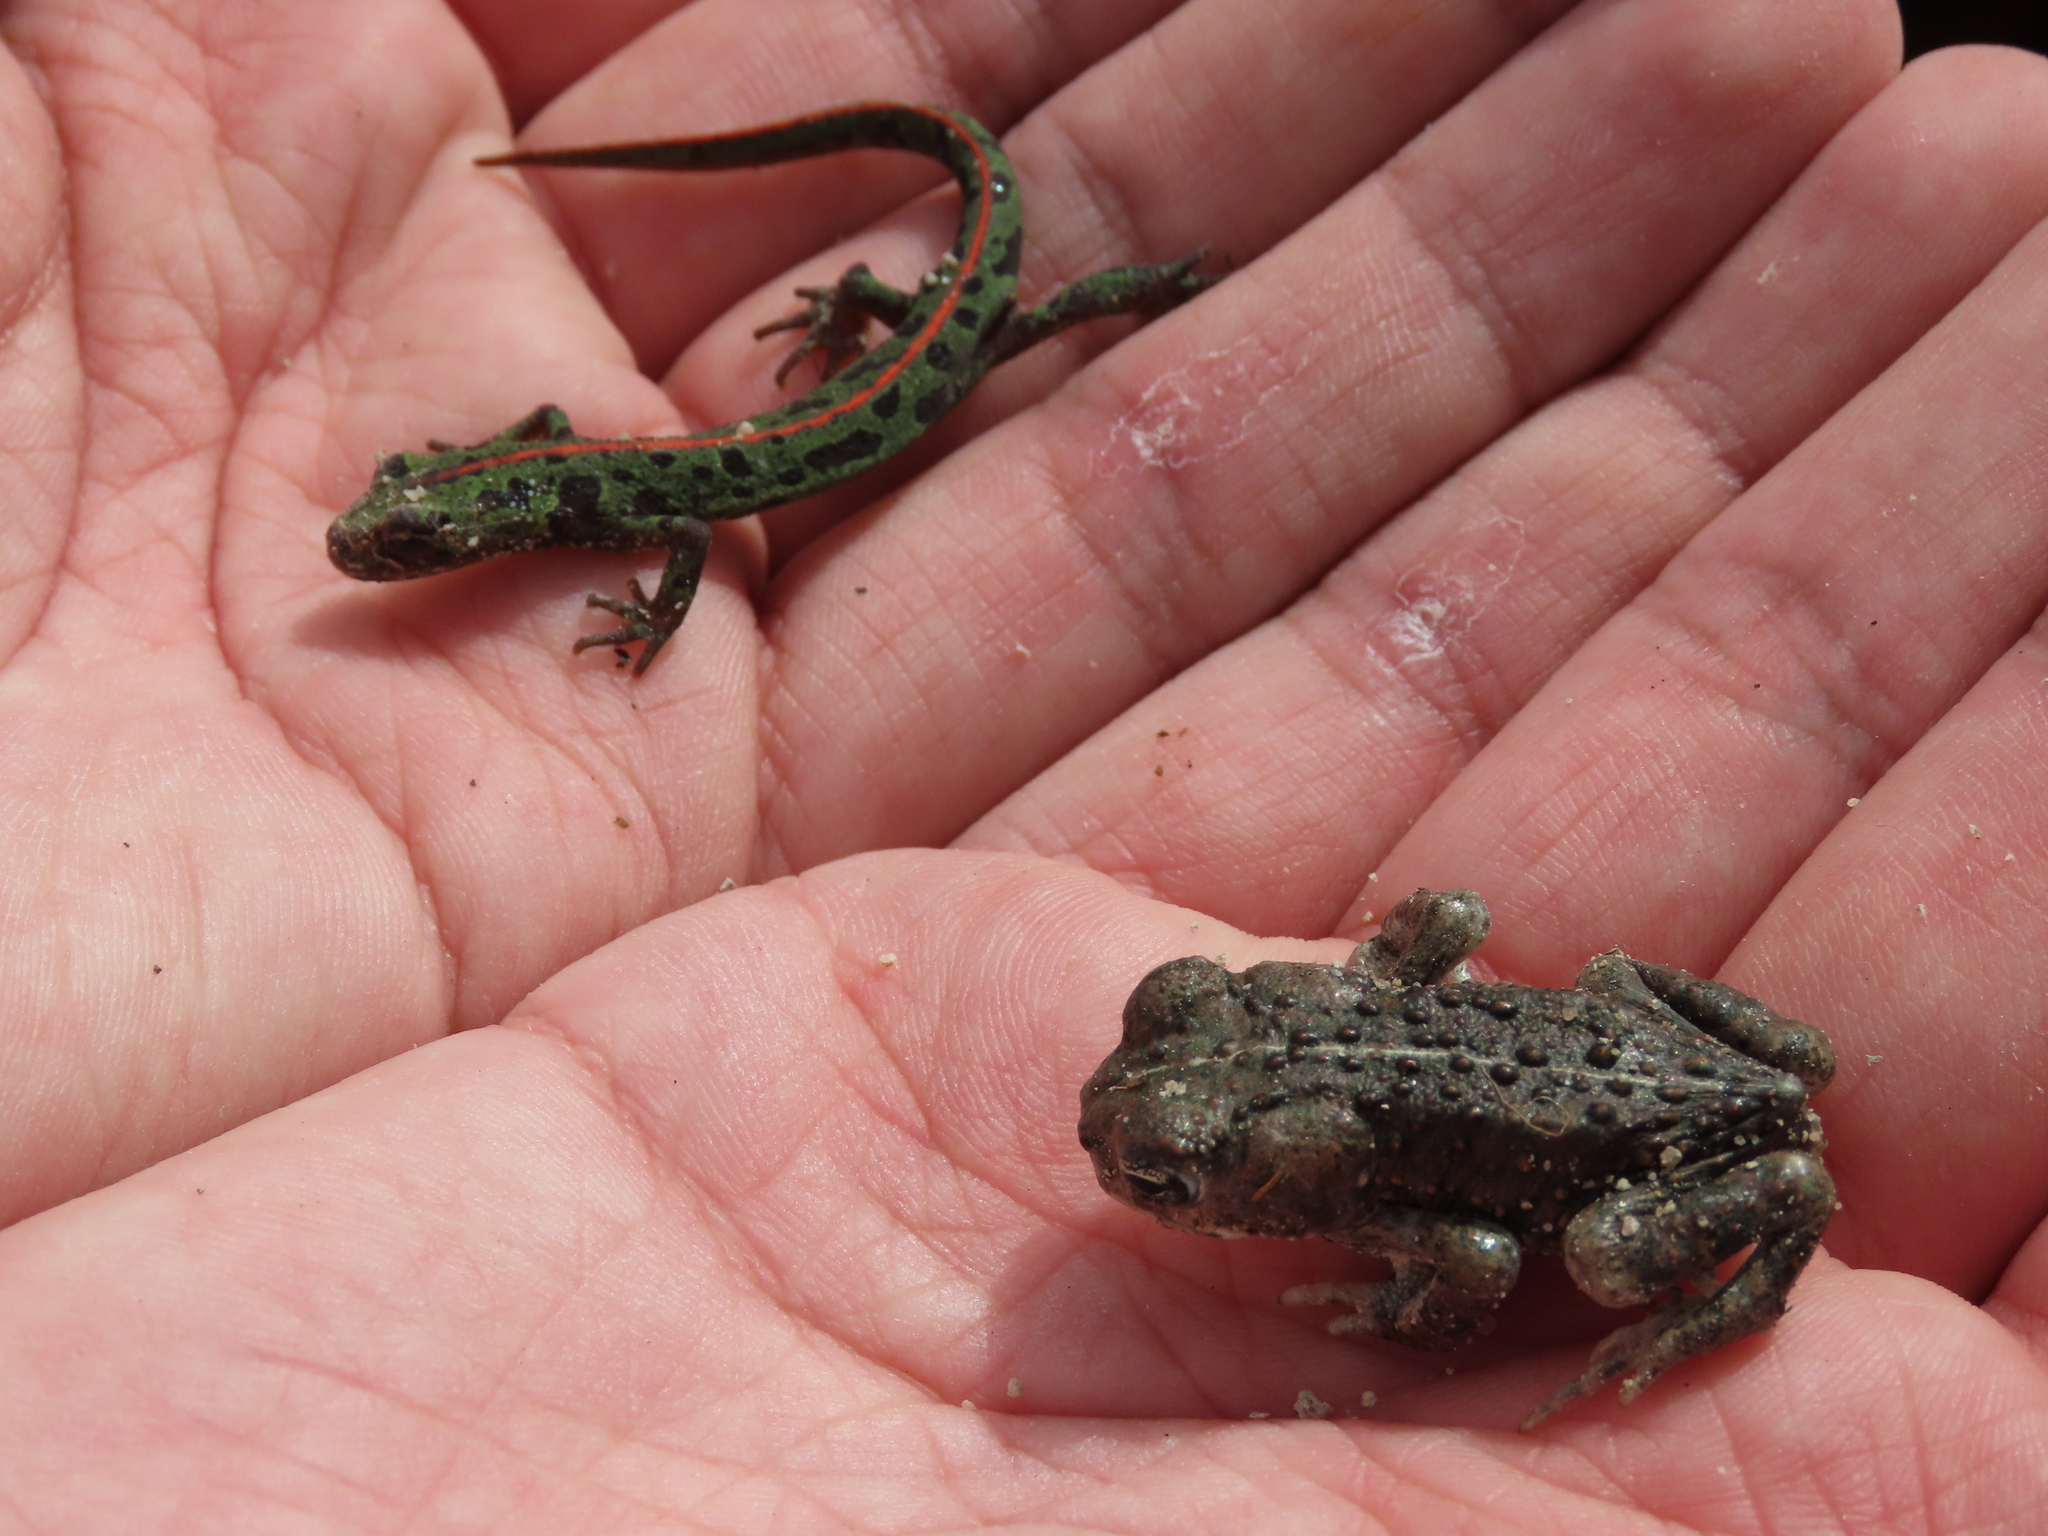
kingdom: Animalia
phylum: Chordata
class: Amphibia
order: Anura
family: Bufonidae
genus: Epidalea
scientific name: Epidalea calamita
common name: Natterjack toad
